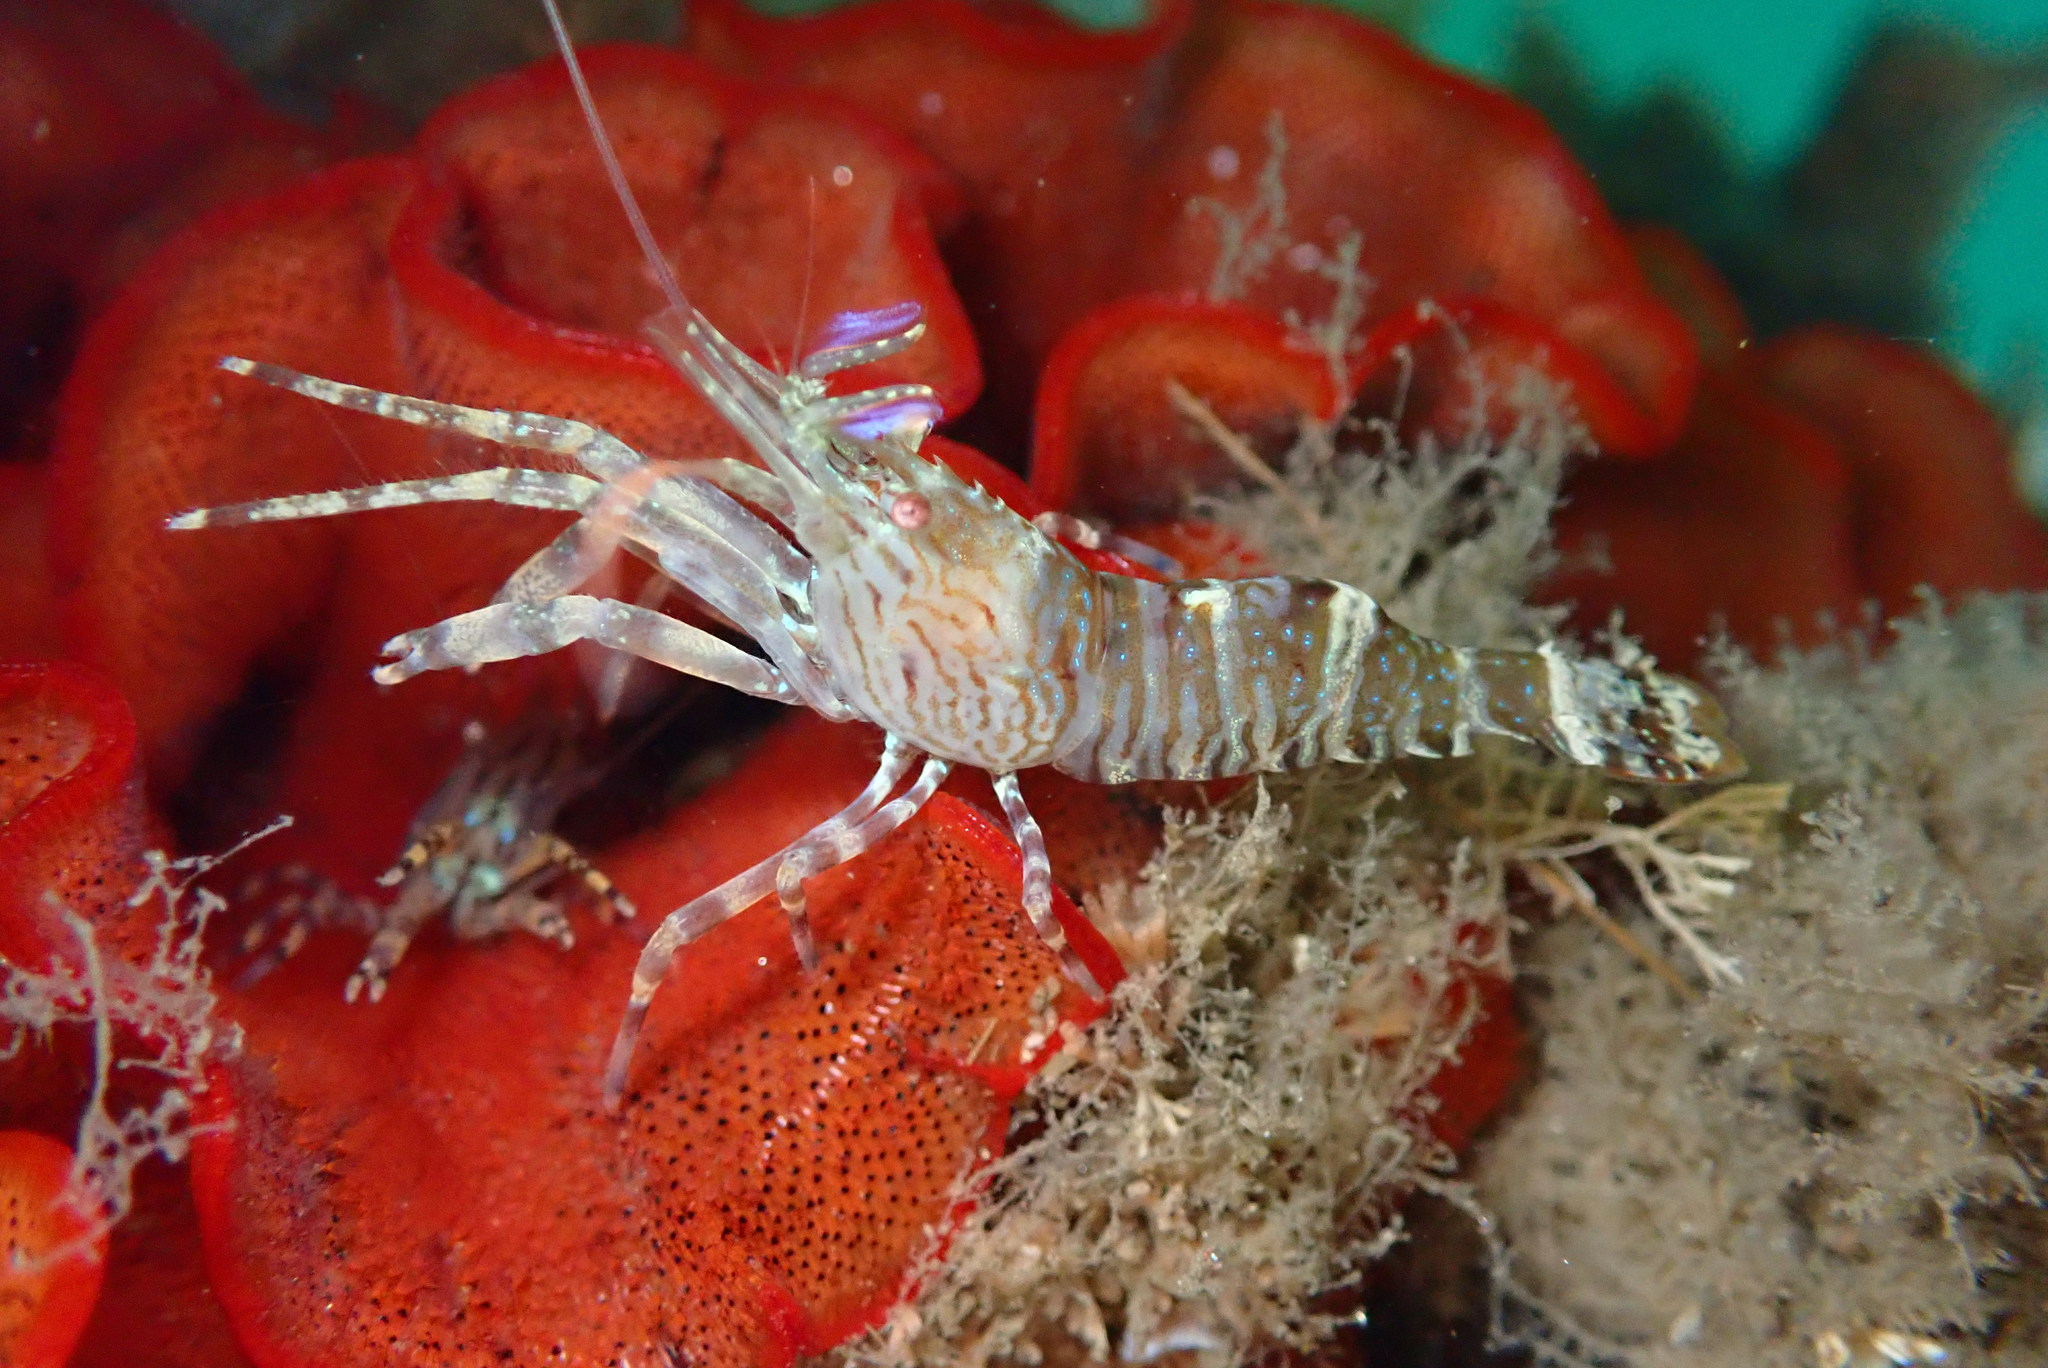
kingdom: Animalia
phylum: Arthropoda
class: Malacostraca
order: Decapoda
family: Thoridae
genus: Heptacarpus
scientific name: Heptacarpus palpator
